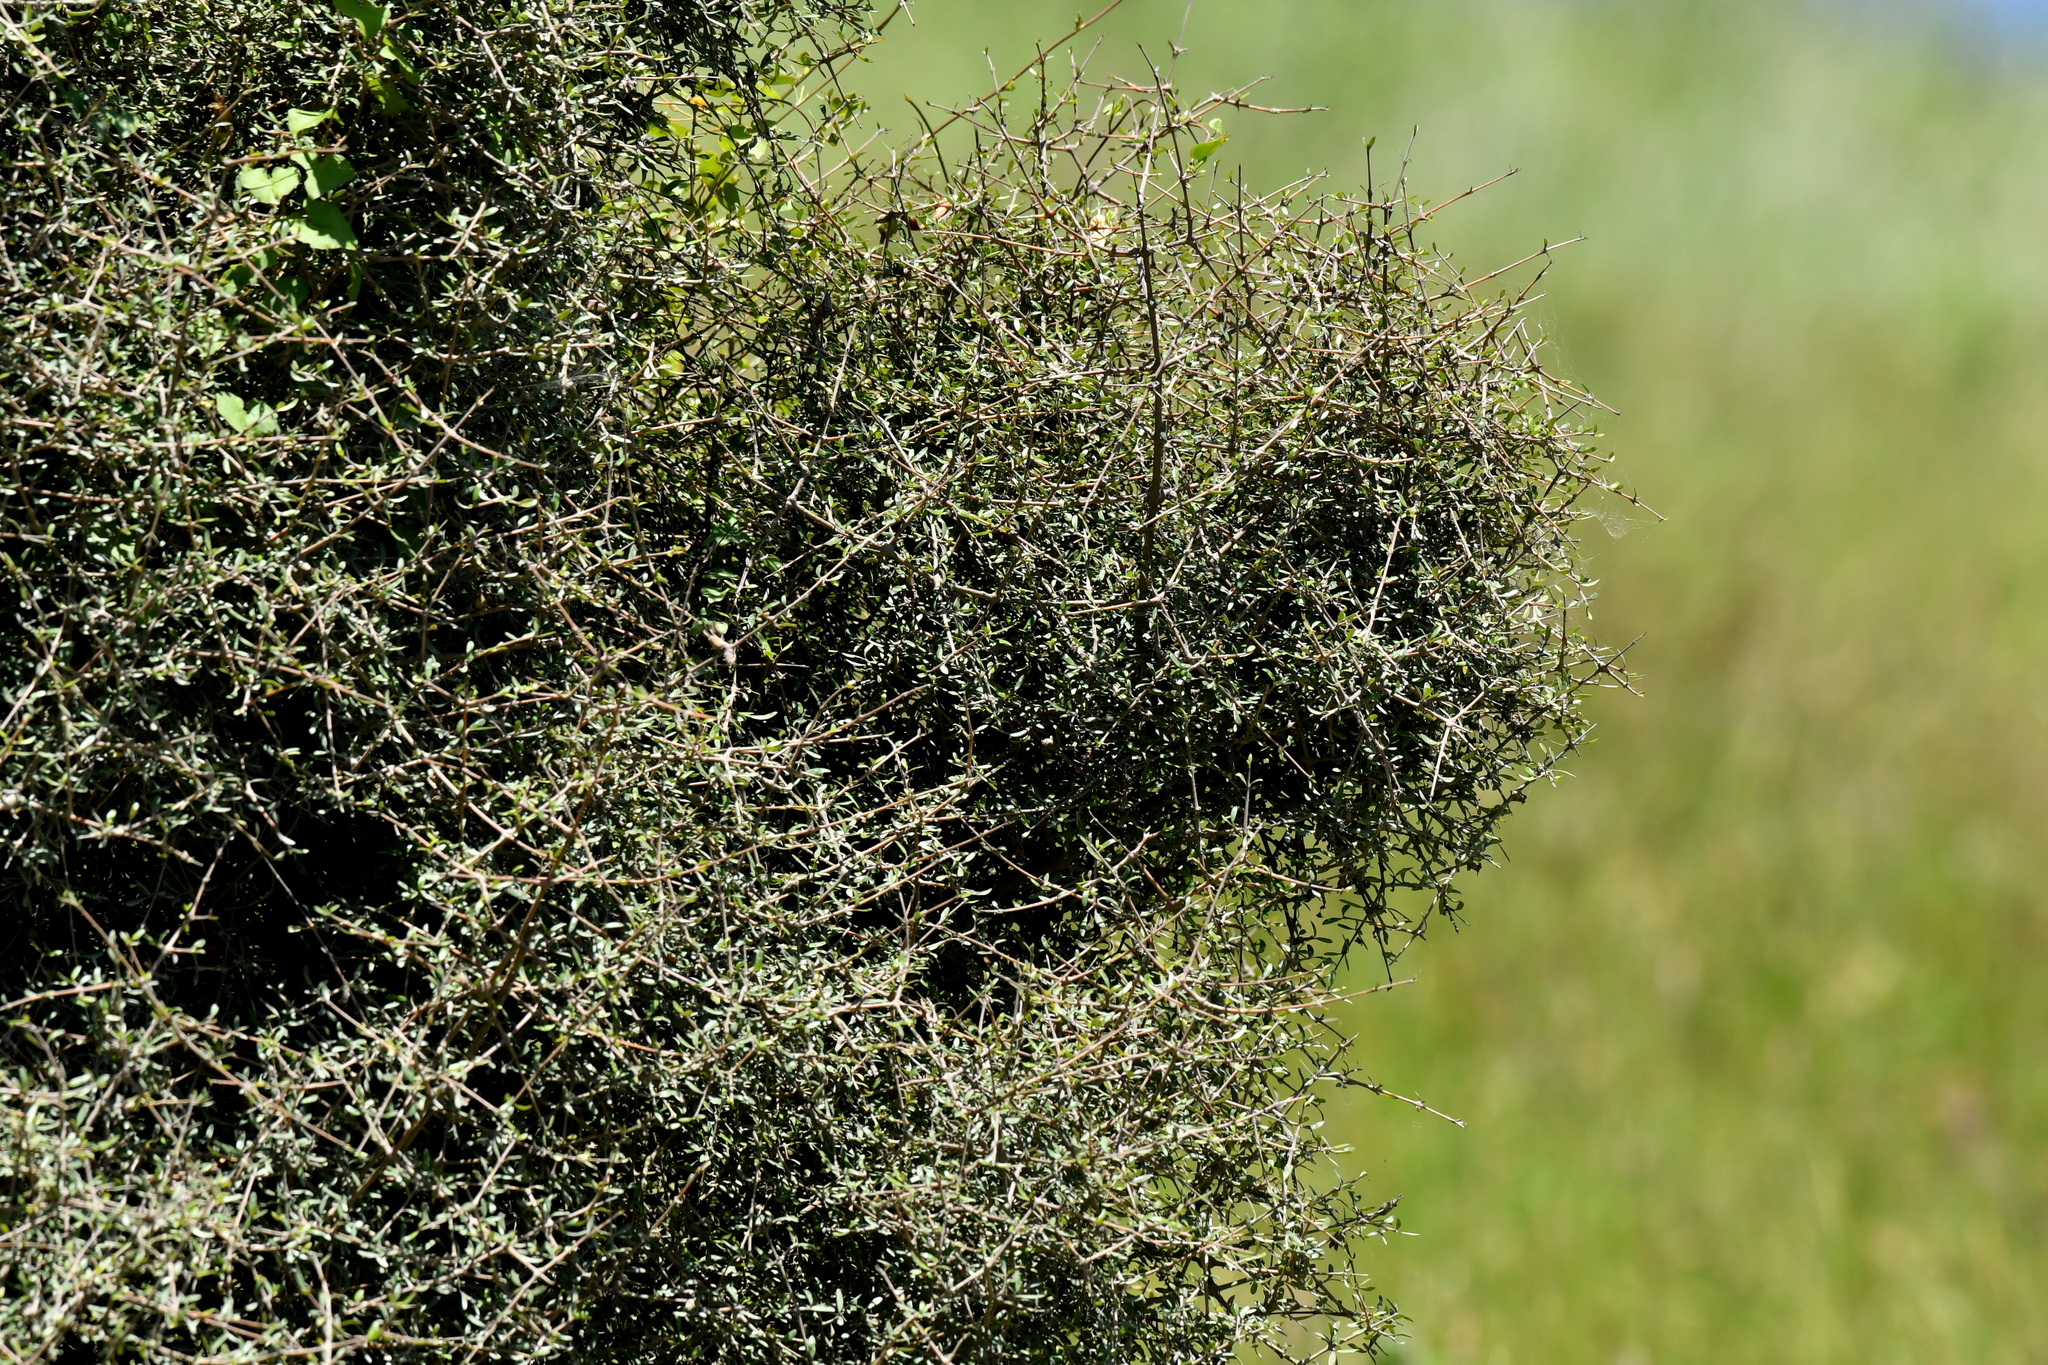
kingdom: Plantae
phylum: Tracheophyta
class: Magnoliopsida
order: Gentianales
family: Rubiaceae
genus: Coprosma
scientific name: Coprosma propinqua
